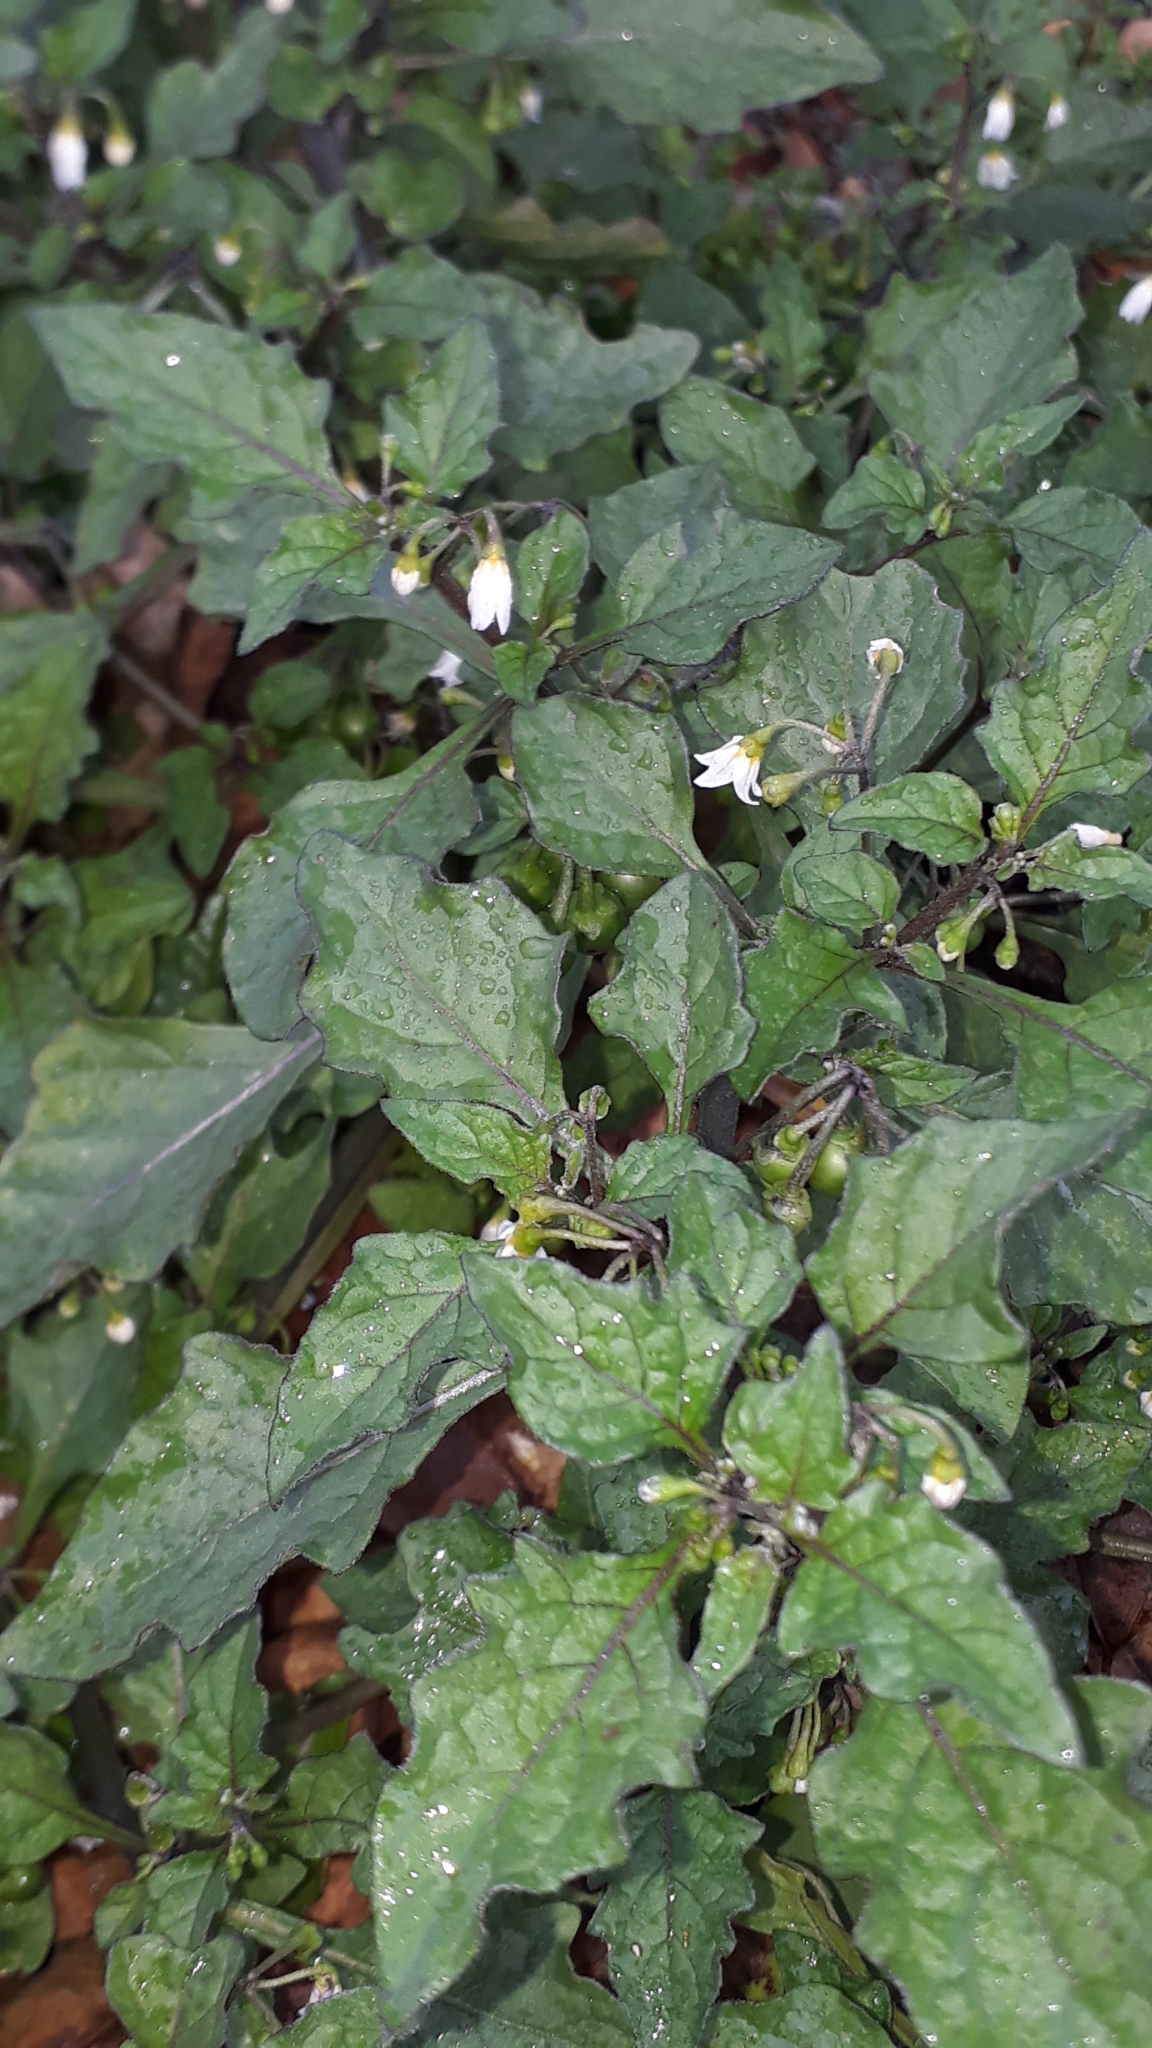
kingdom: Plantae
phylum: Tracheophyta
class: Magnoliopsida
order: Solanales
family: Solanaceae
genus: Solanum
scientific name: Solanum nigrum
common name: Black nightshade
